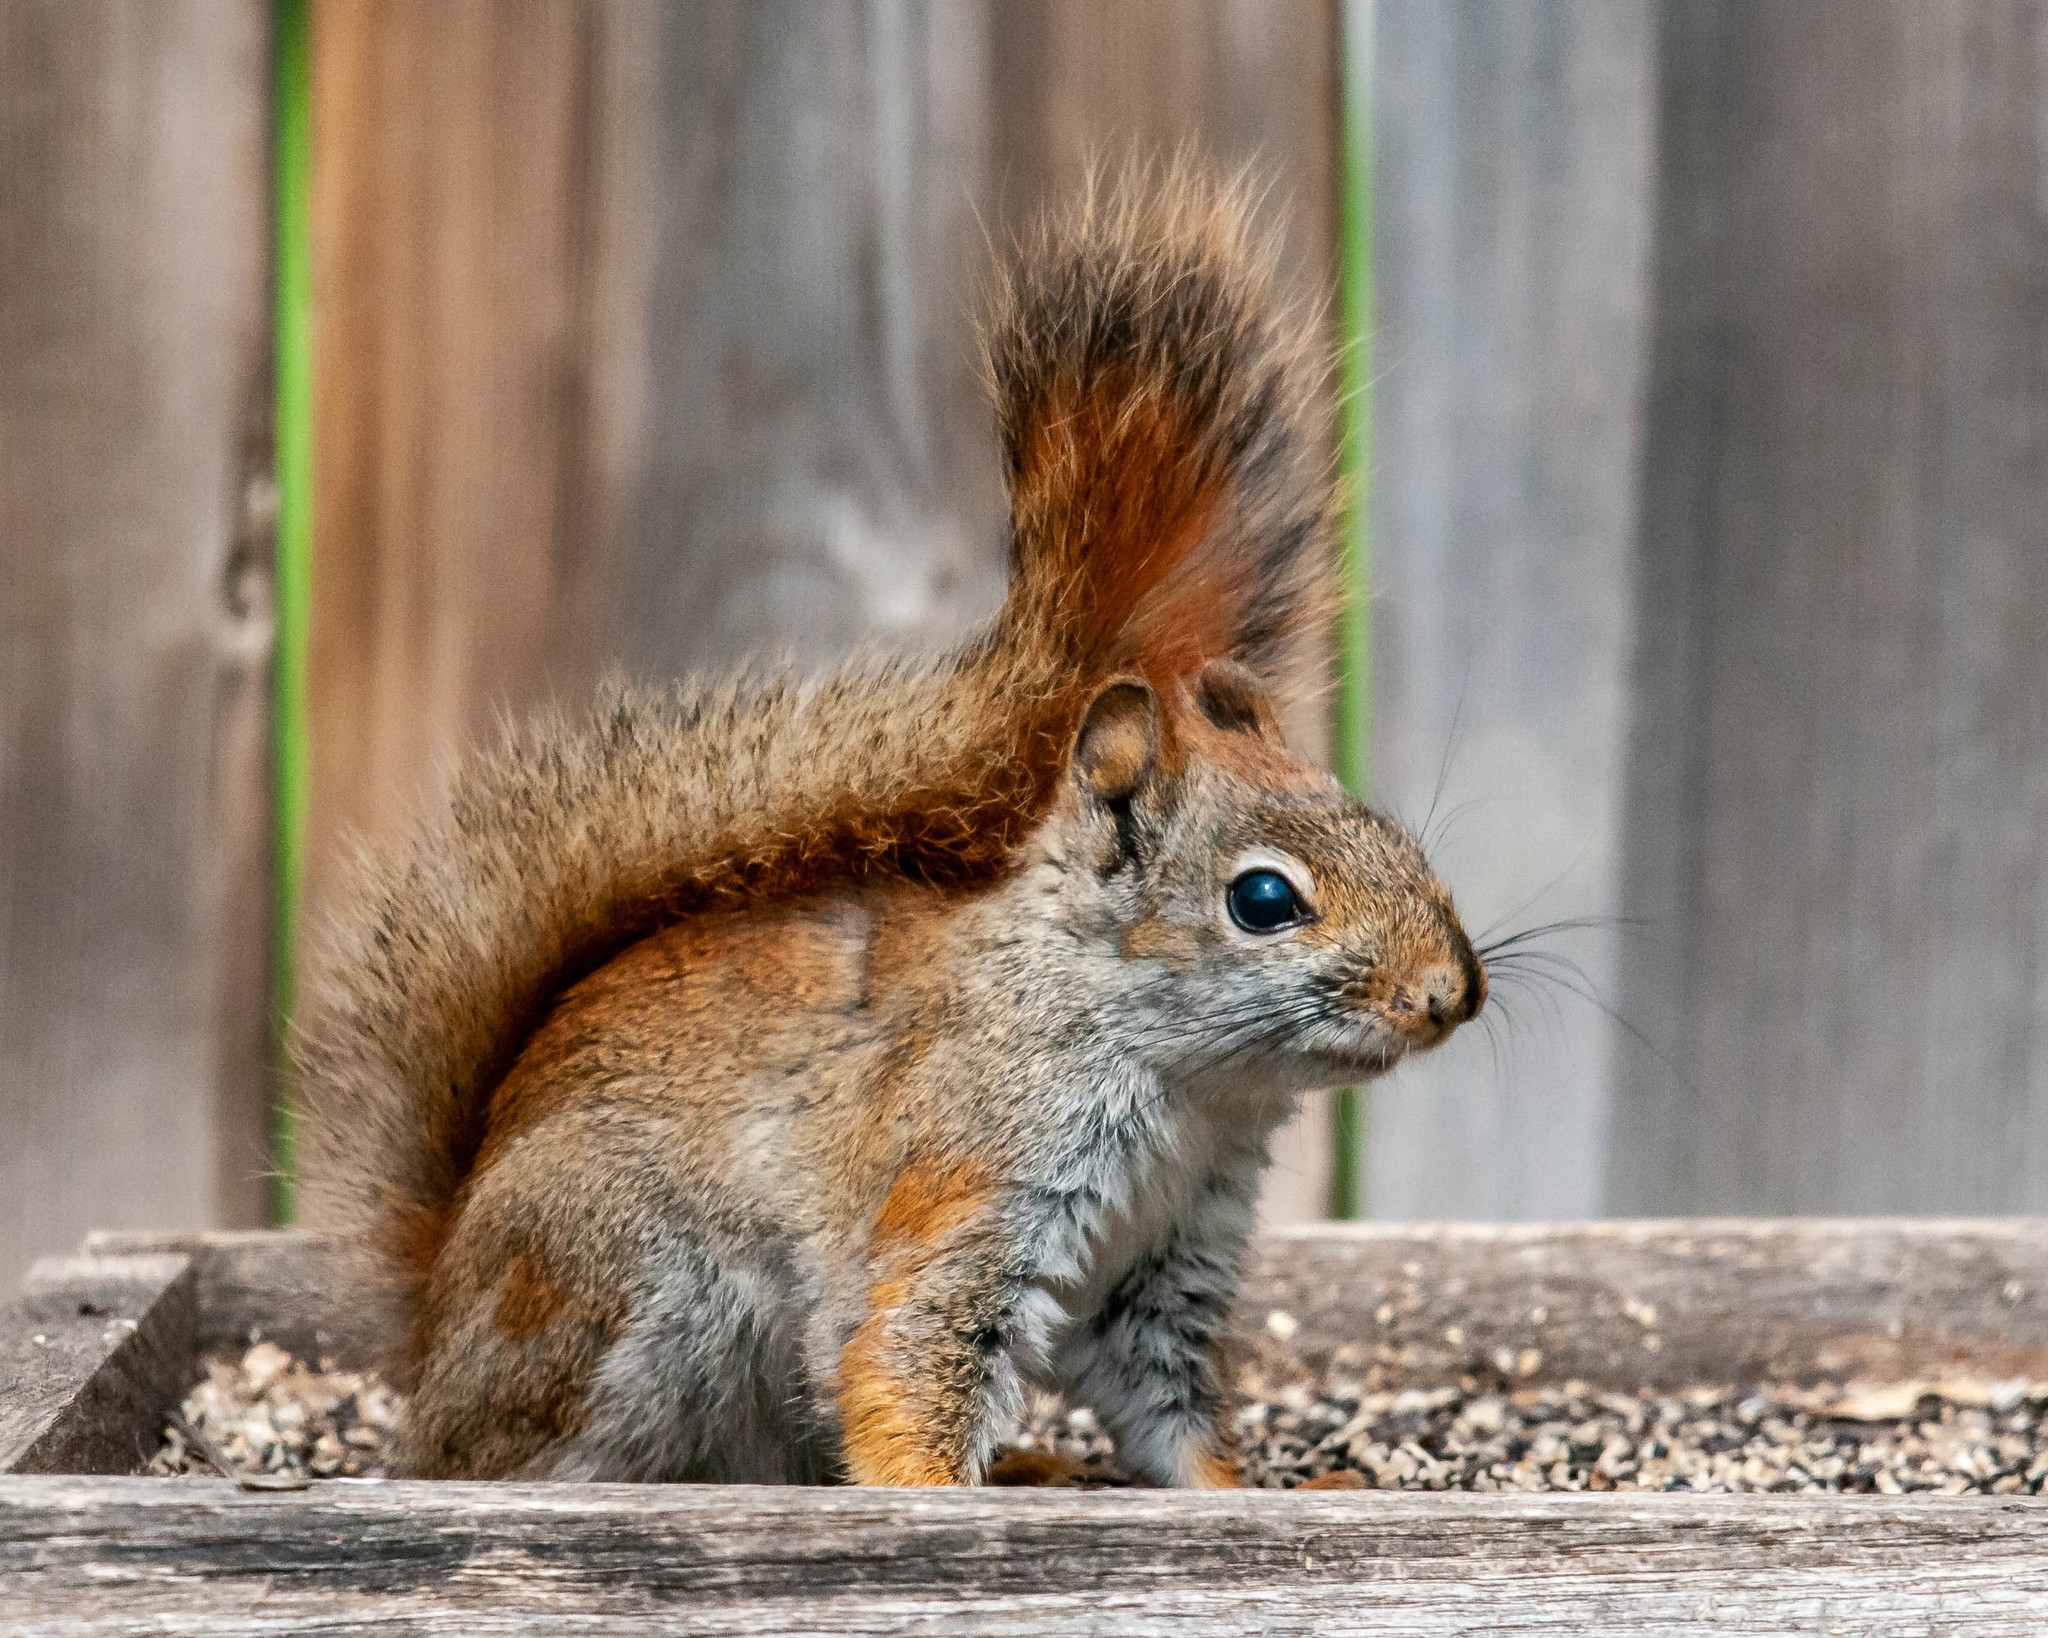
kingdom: Animalia
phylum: Chordata
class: Mammalia
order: Rodentia
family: Sciuridae
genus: Tamiasciurus
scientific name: Tamiasciurus hudsonicus
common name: Red squirrel
